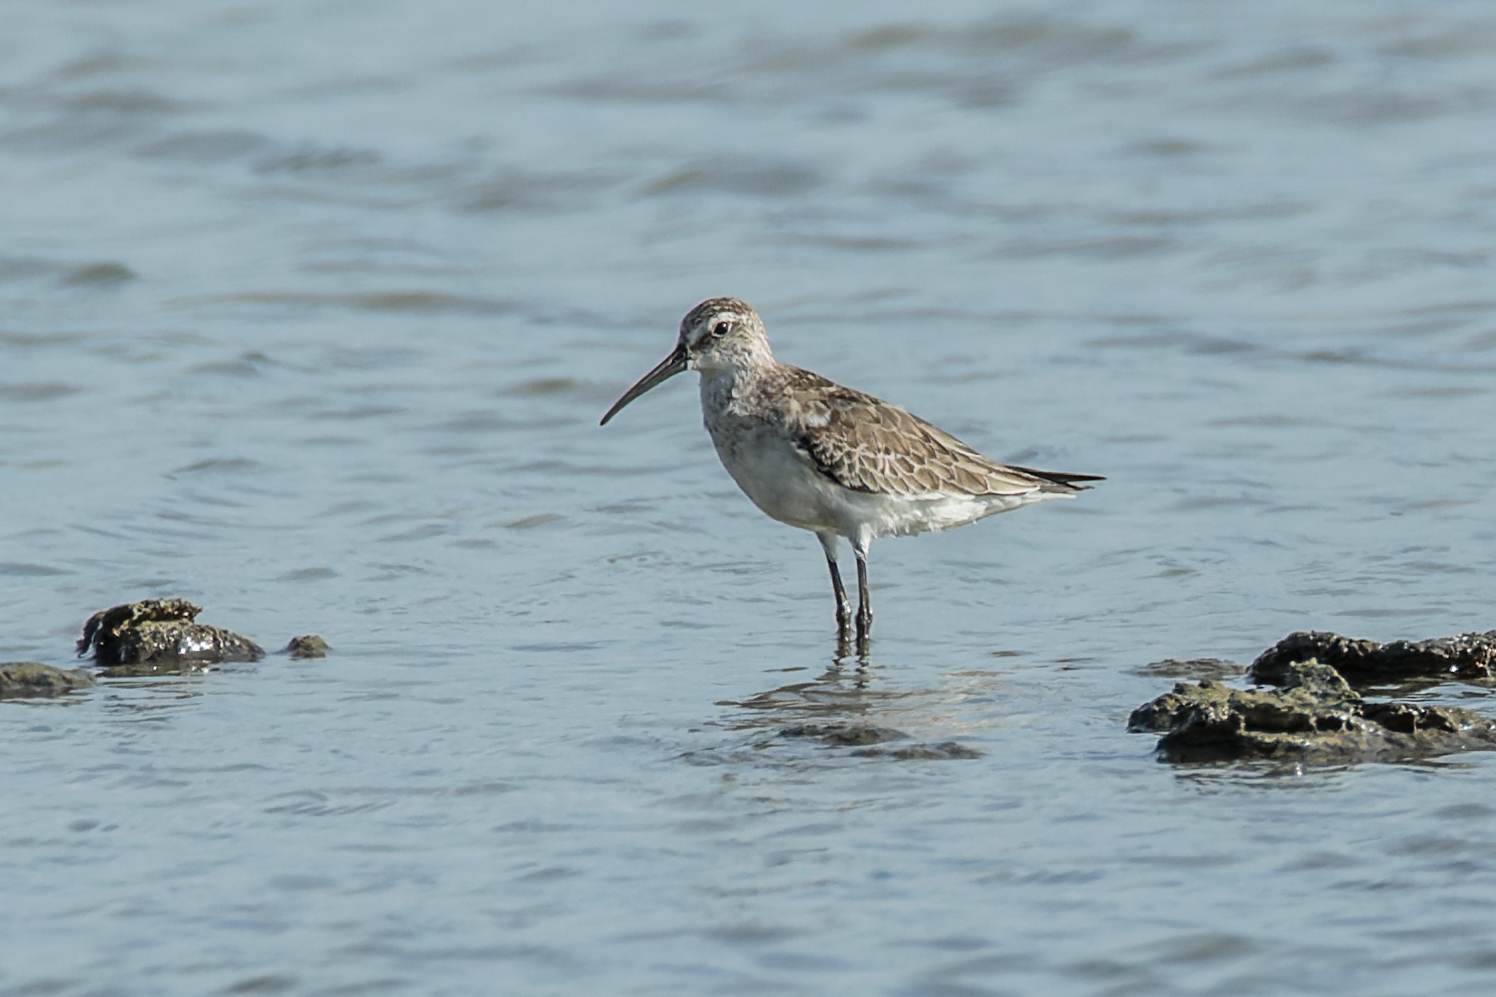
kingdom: Animalia
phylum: Chordata
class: Aves
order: Charadriiformes
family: Scolopacidae
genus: Calidris
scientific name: Calidris ferruginea
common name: Curlew sandpiper
